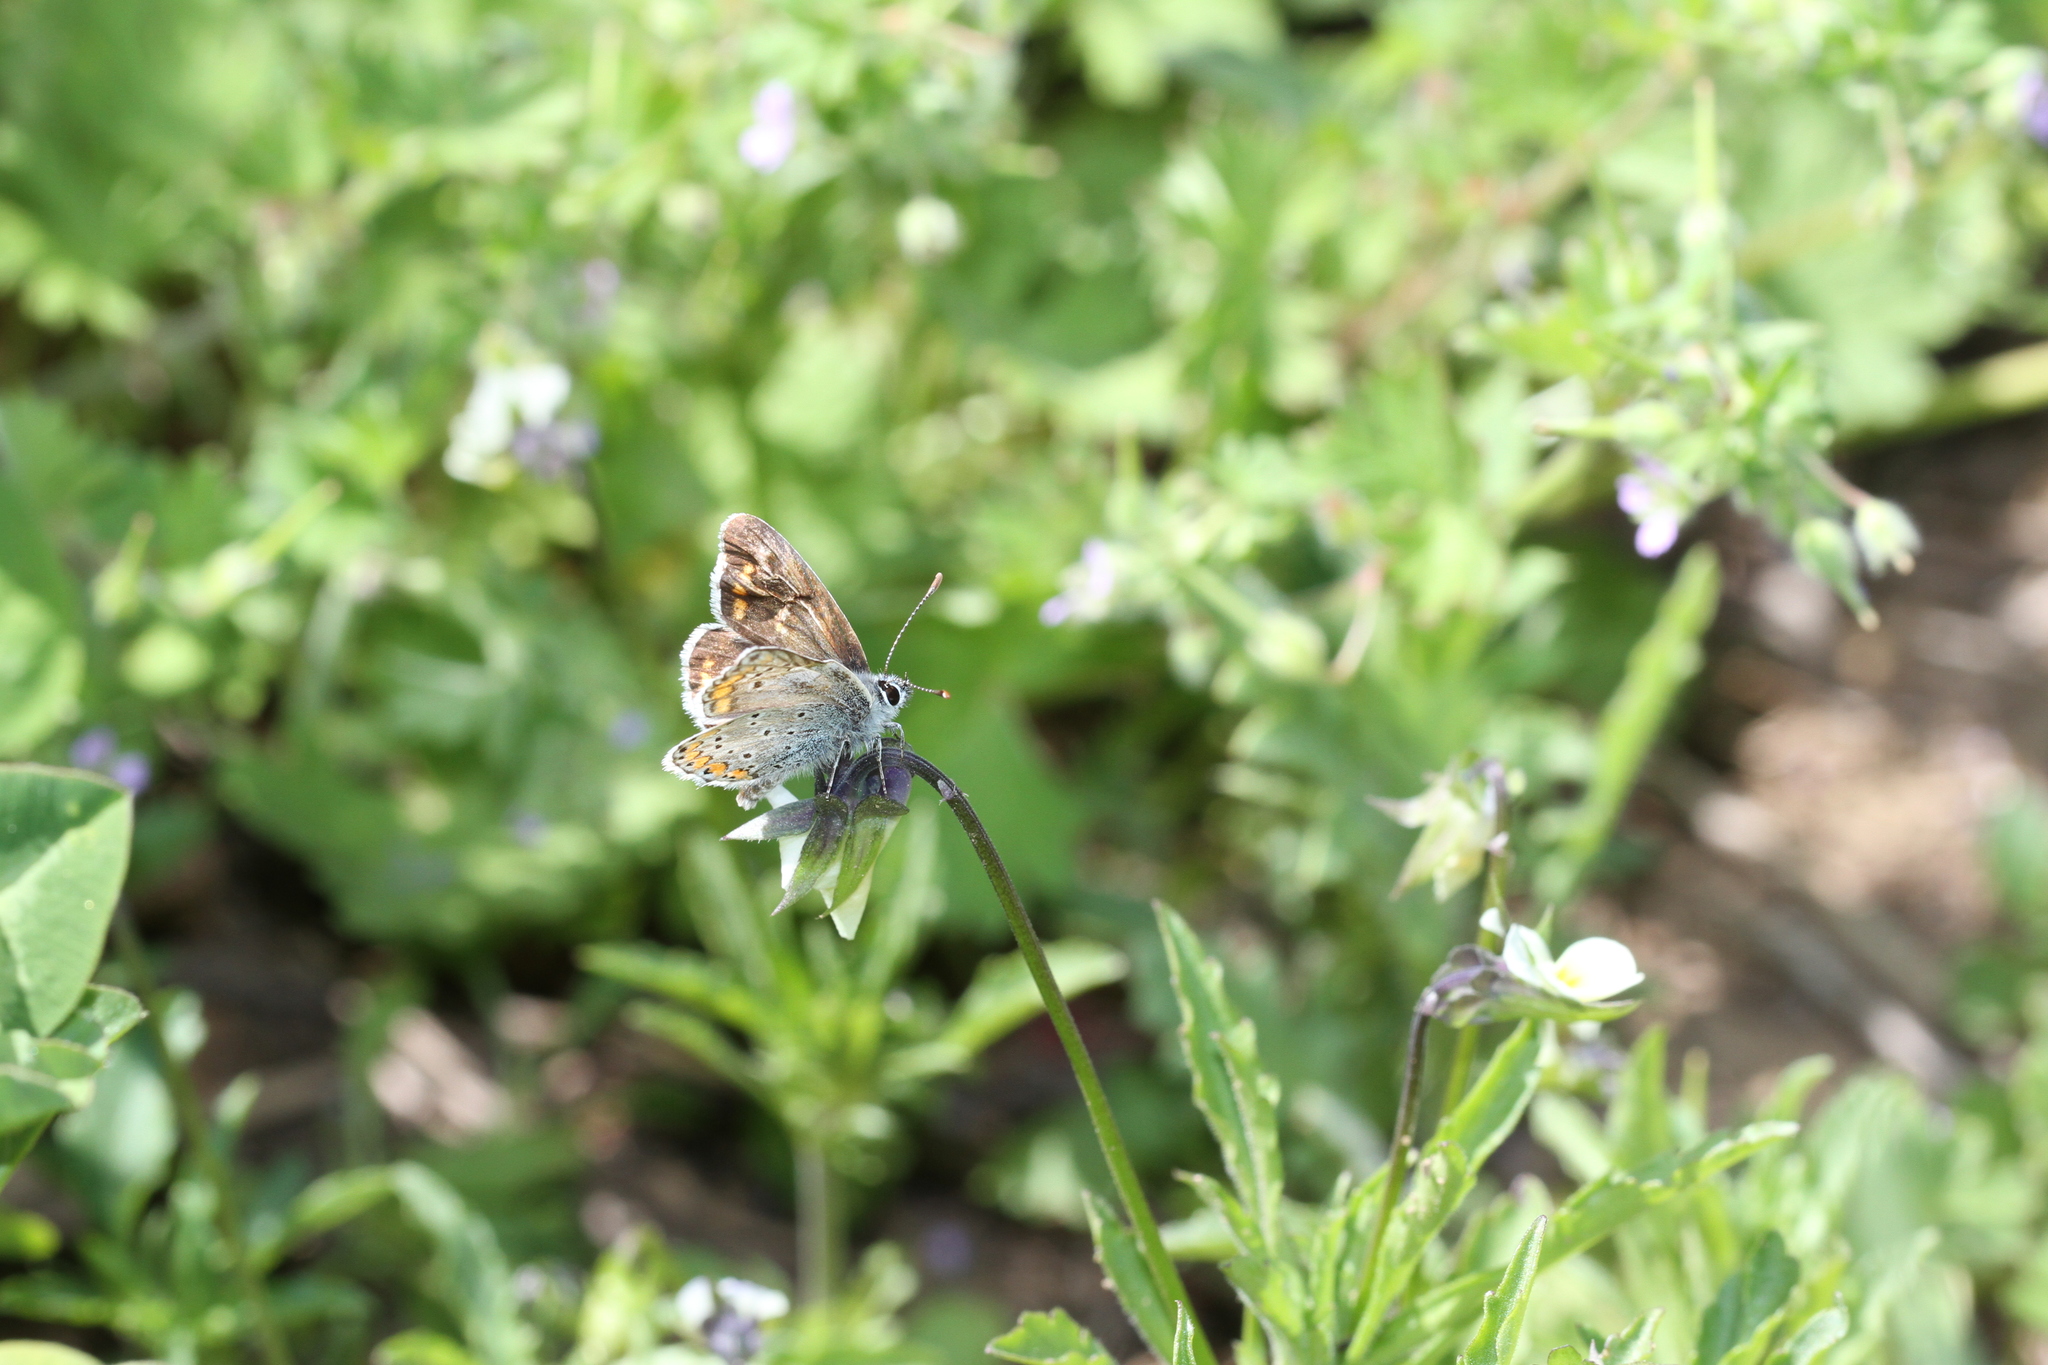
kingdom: Animalia
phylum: Arthropoda
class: Insecta
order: Lepidoptera
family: Lycaenidae
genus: Aricia
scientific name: Aricia agestis
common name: Brown argus
